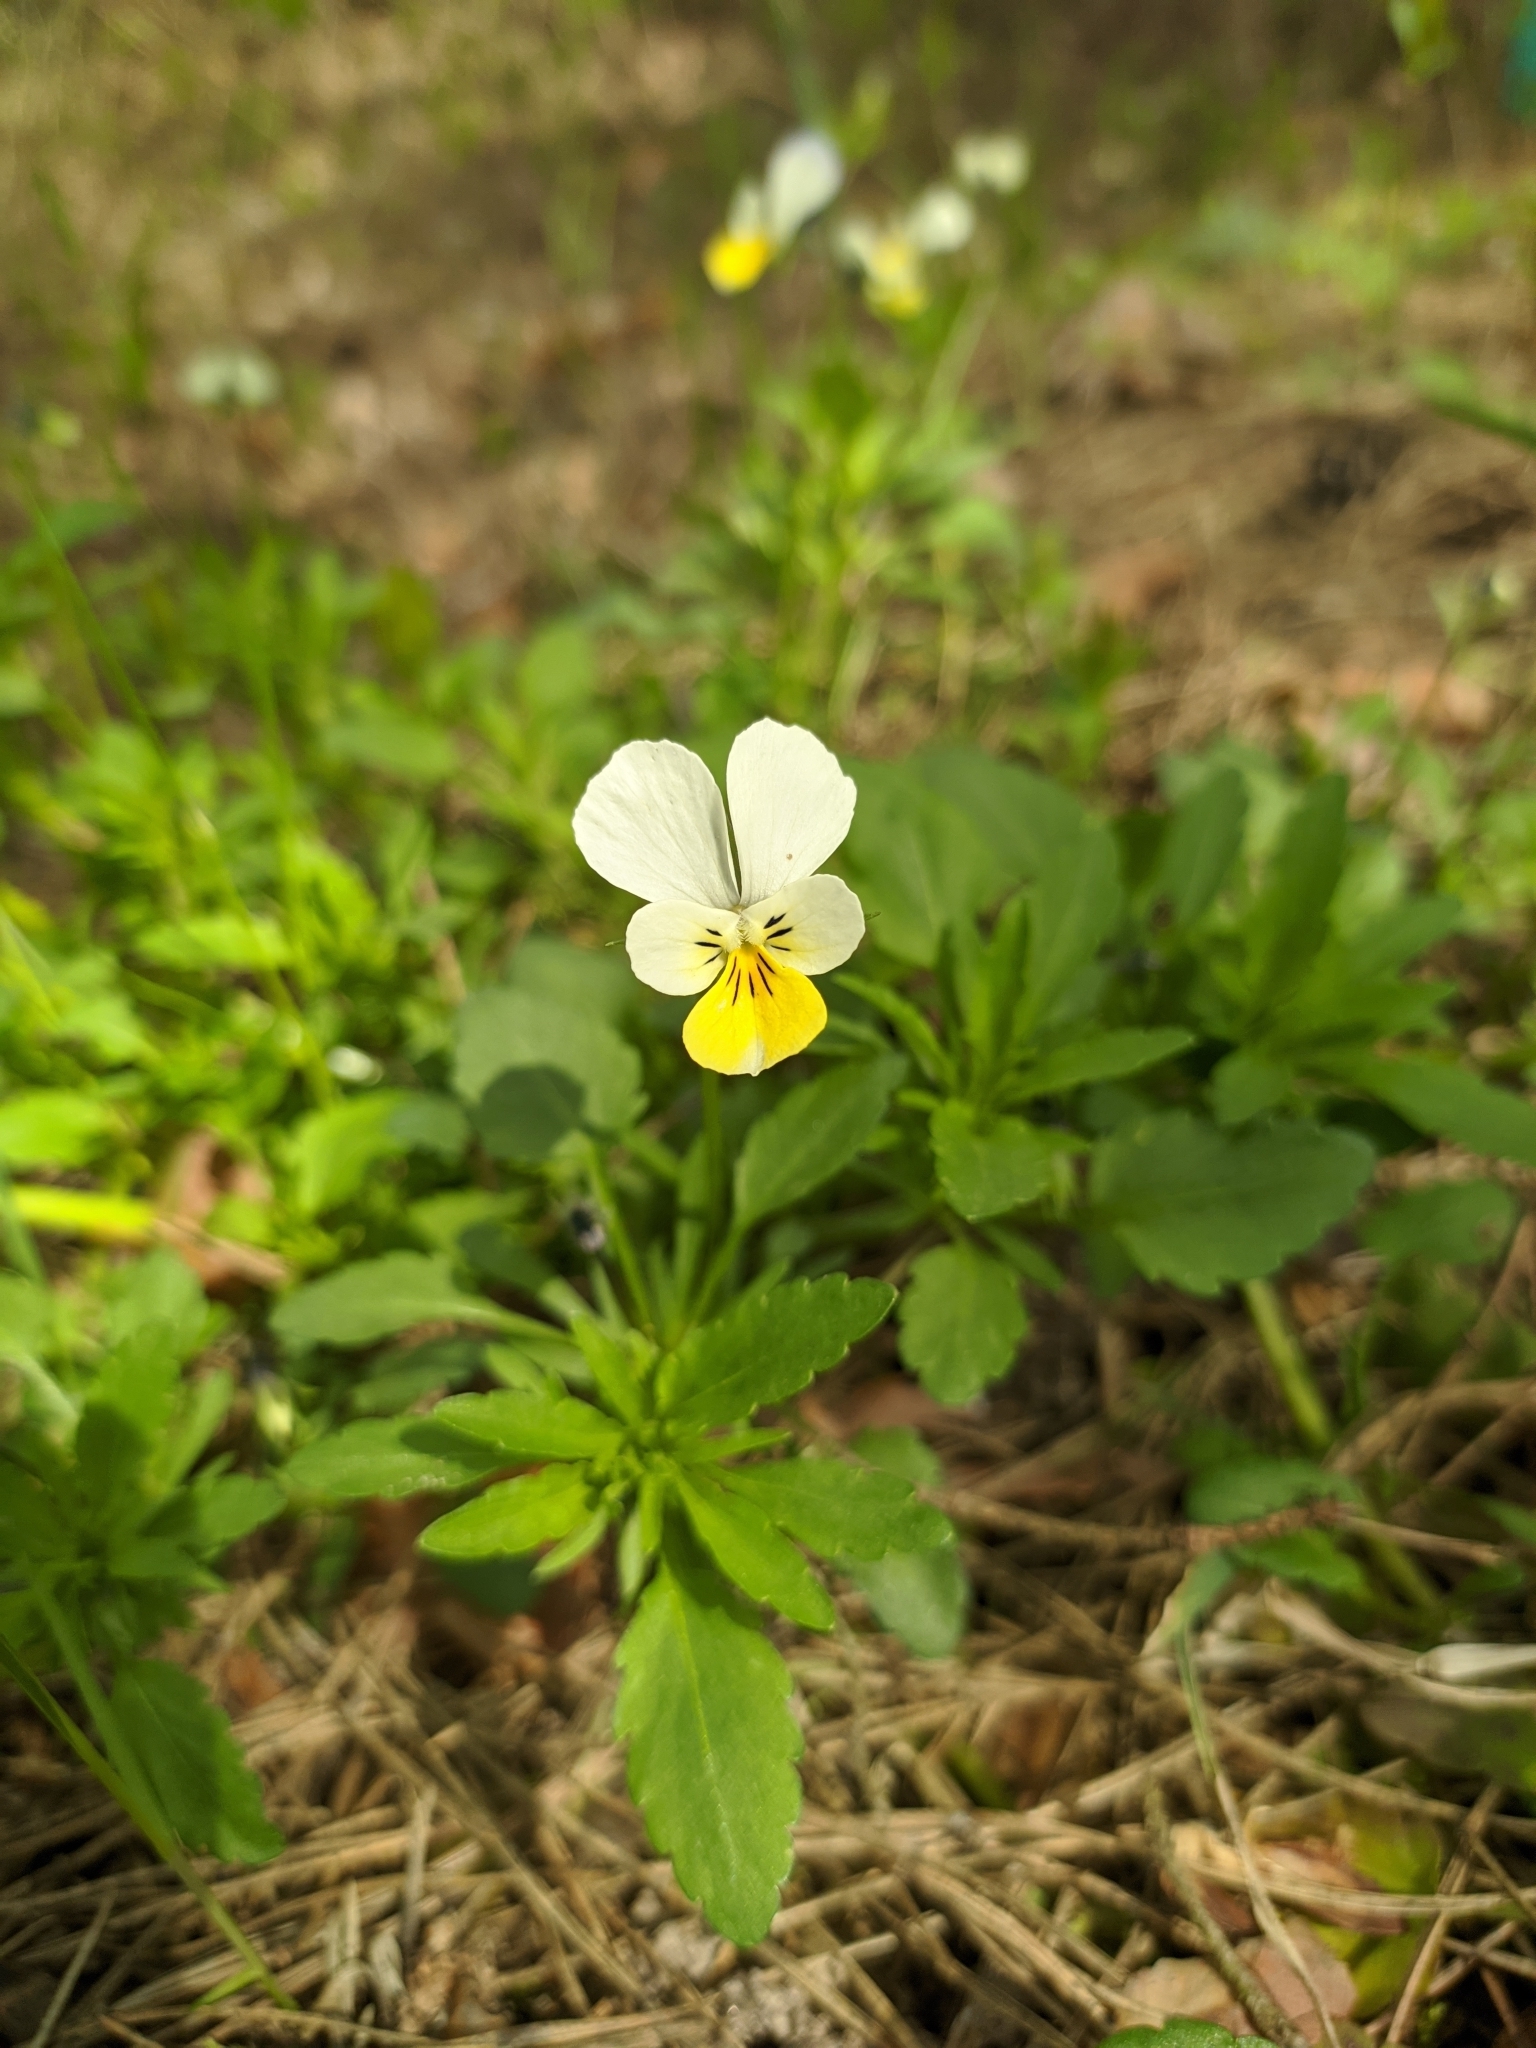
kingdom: Plantae
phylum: Tracheophyta
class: Magnoliopsida
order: Malpighiales
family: Violaceae
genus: Viola
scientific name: Viola arvensis
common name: Field pansy
